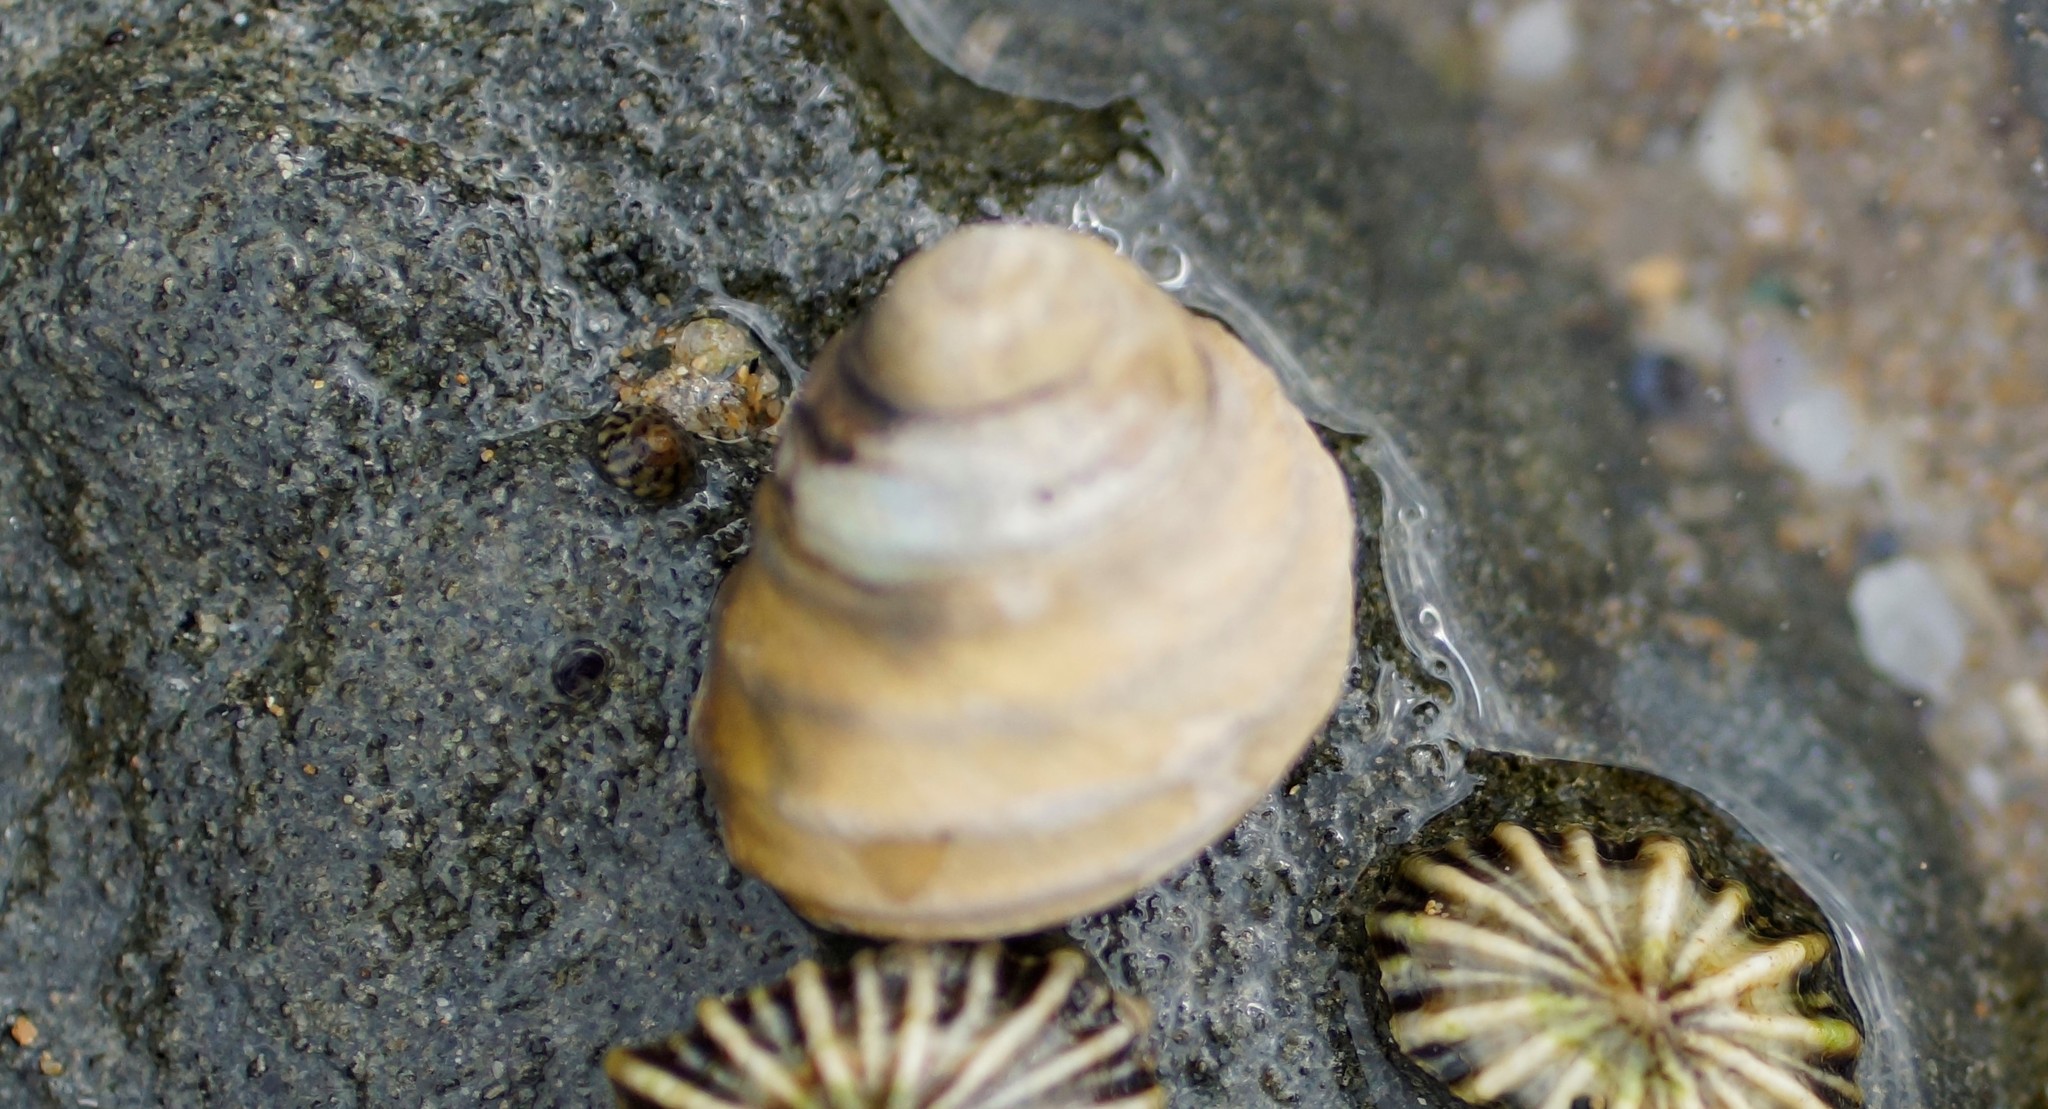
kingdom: Animalia
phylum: Mollusca
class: Gastropoda
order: Trochida
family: Trochidae
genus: Austrocochlea
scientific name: Austrocochlea constricta
